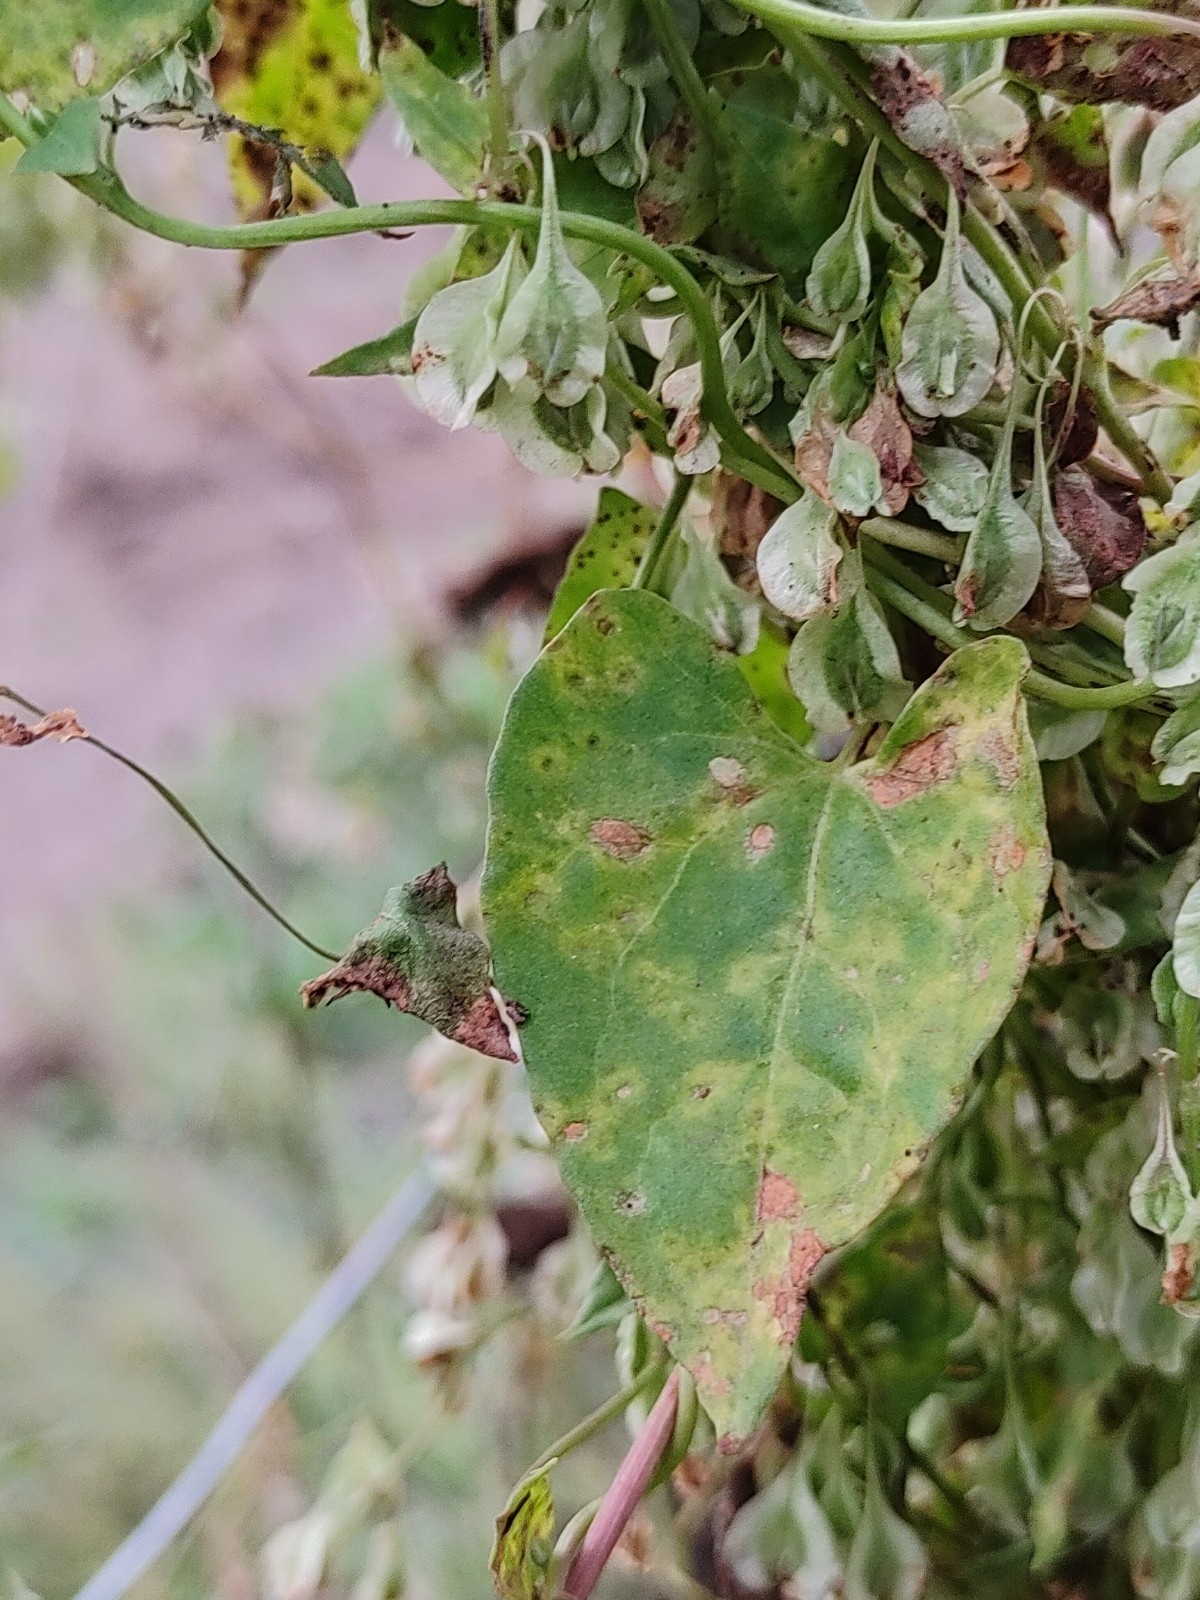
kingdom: Plantae
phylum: Tracheophyta
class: Magnoliopsida
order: Caryophyllales
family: Polygonaceae
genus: Fallopia
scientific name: Fallopia dumetorum
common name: Copse-bindweed
